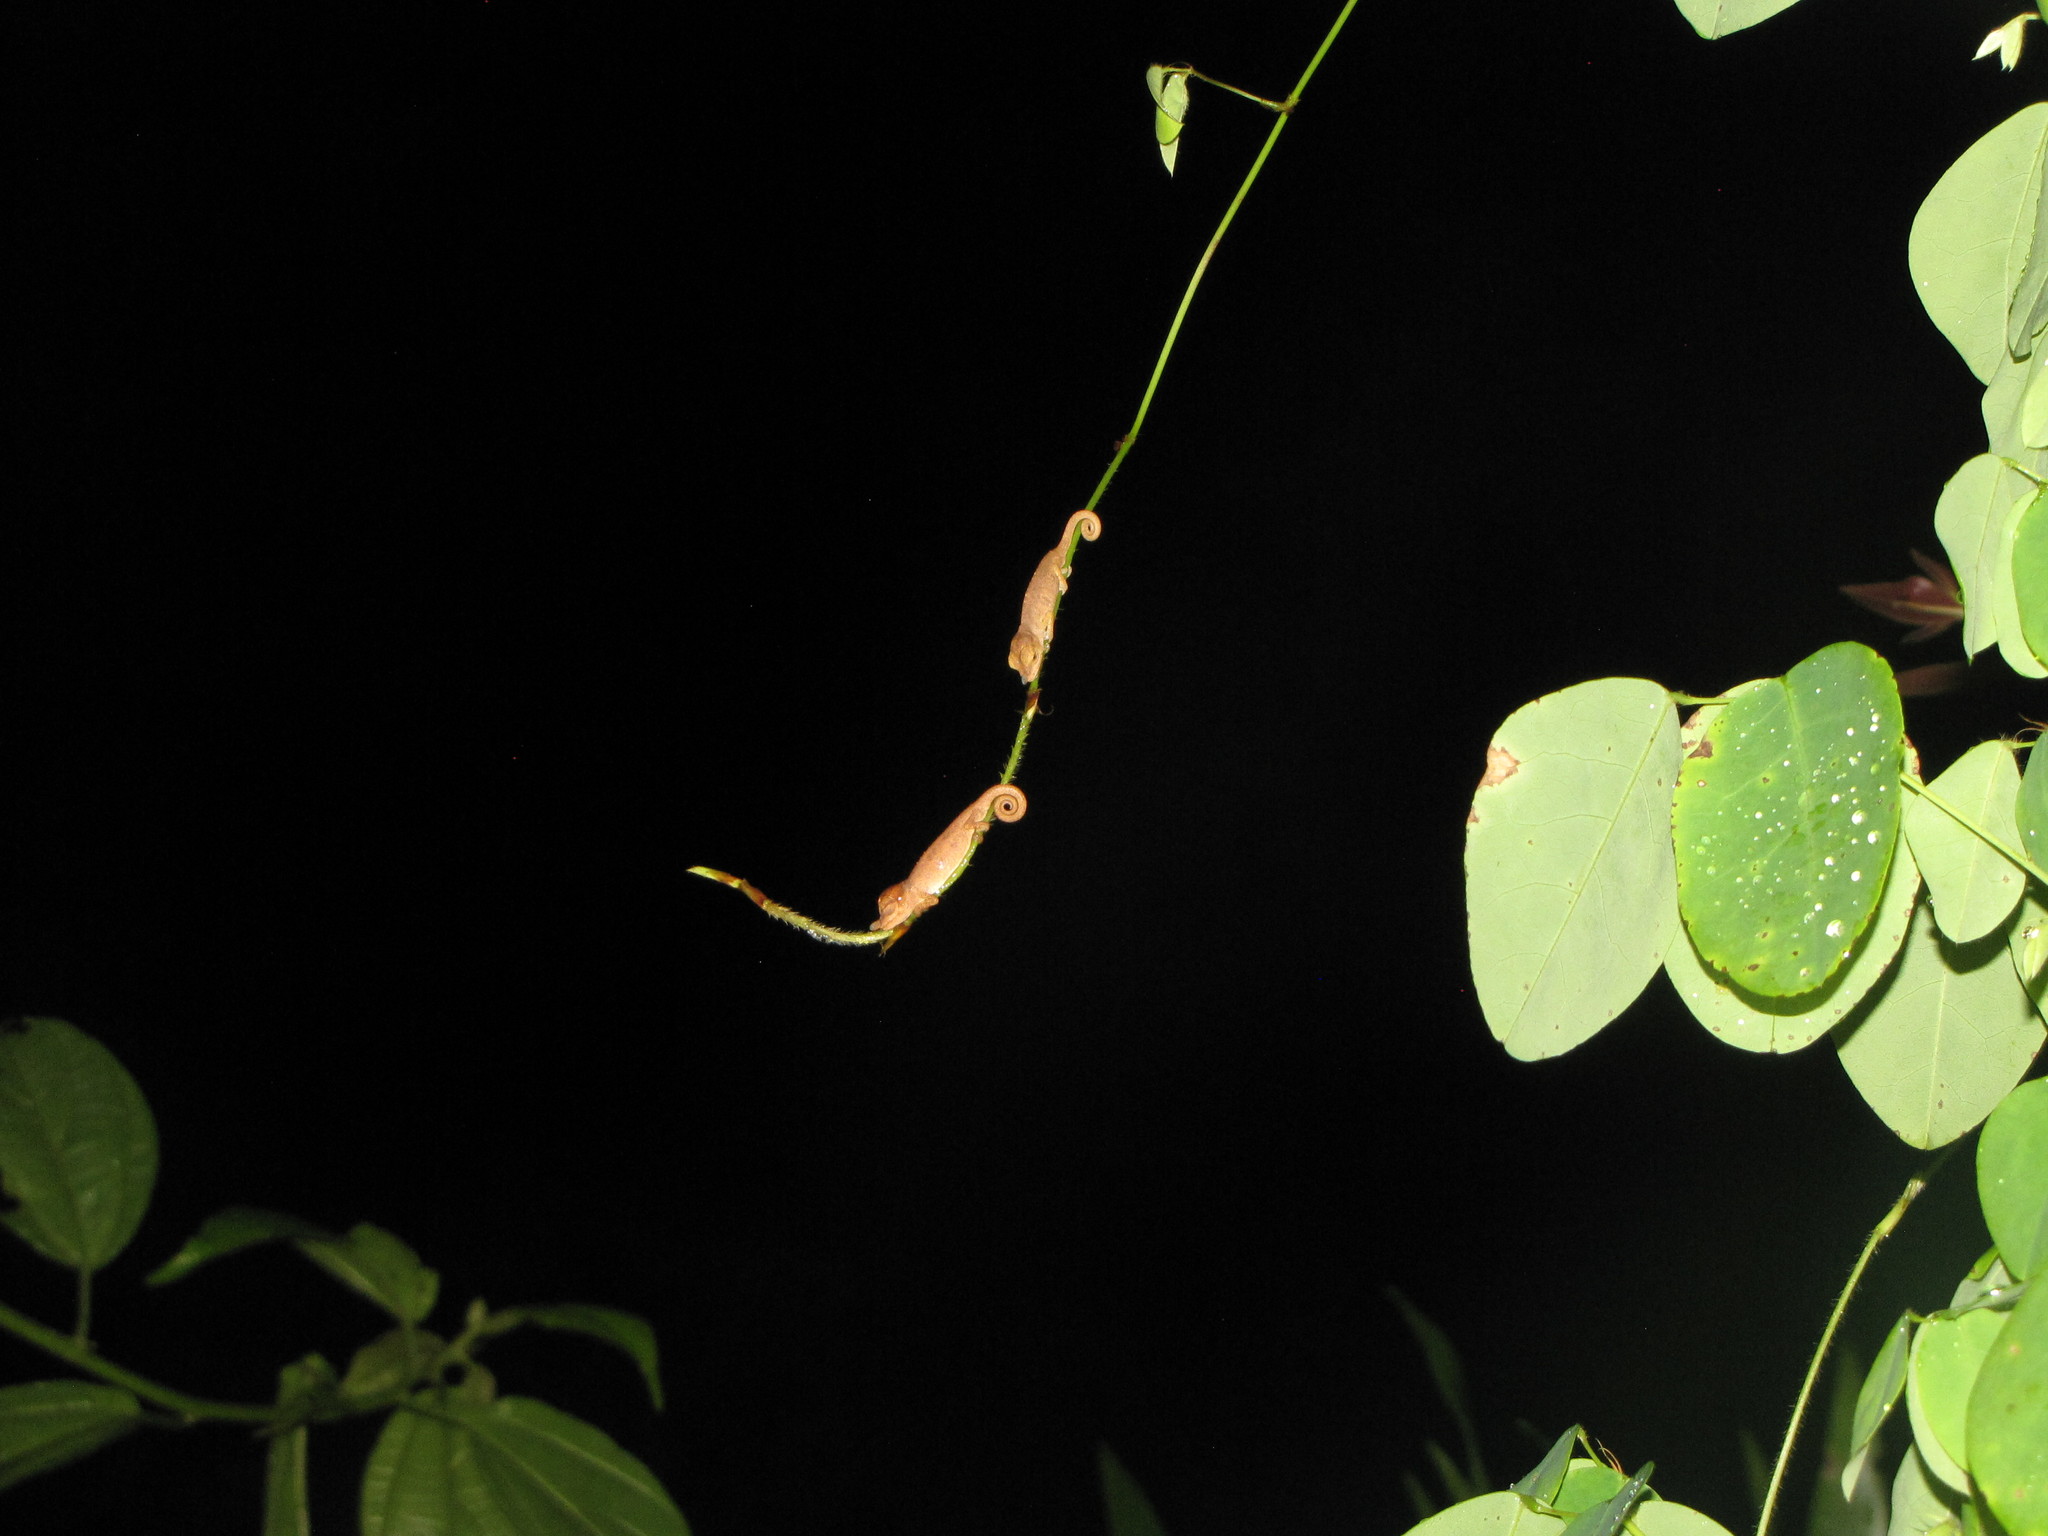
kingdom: Animalia
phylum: Chordata
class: Squamata
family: Chamaeleonidae
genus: Calumma
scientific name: Calumma linotum
